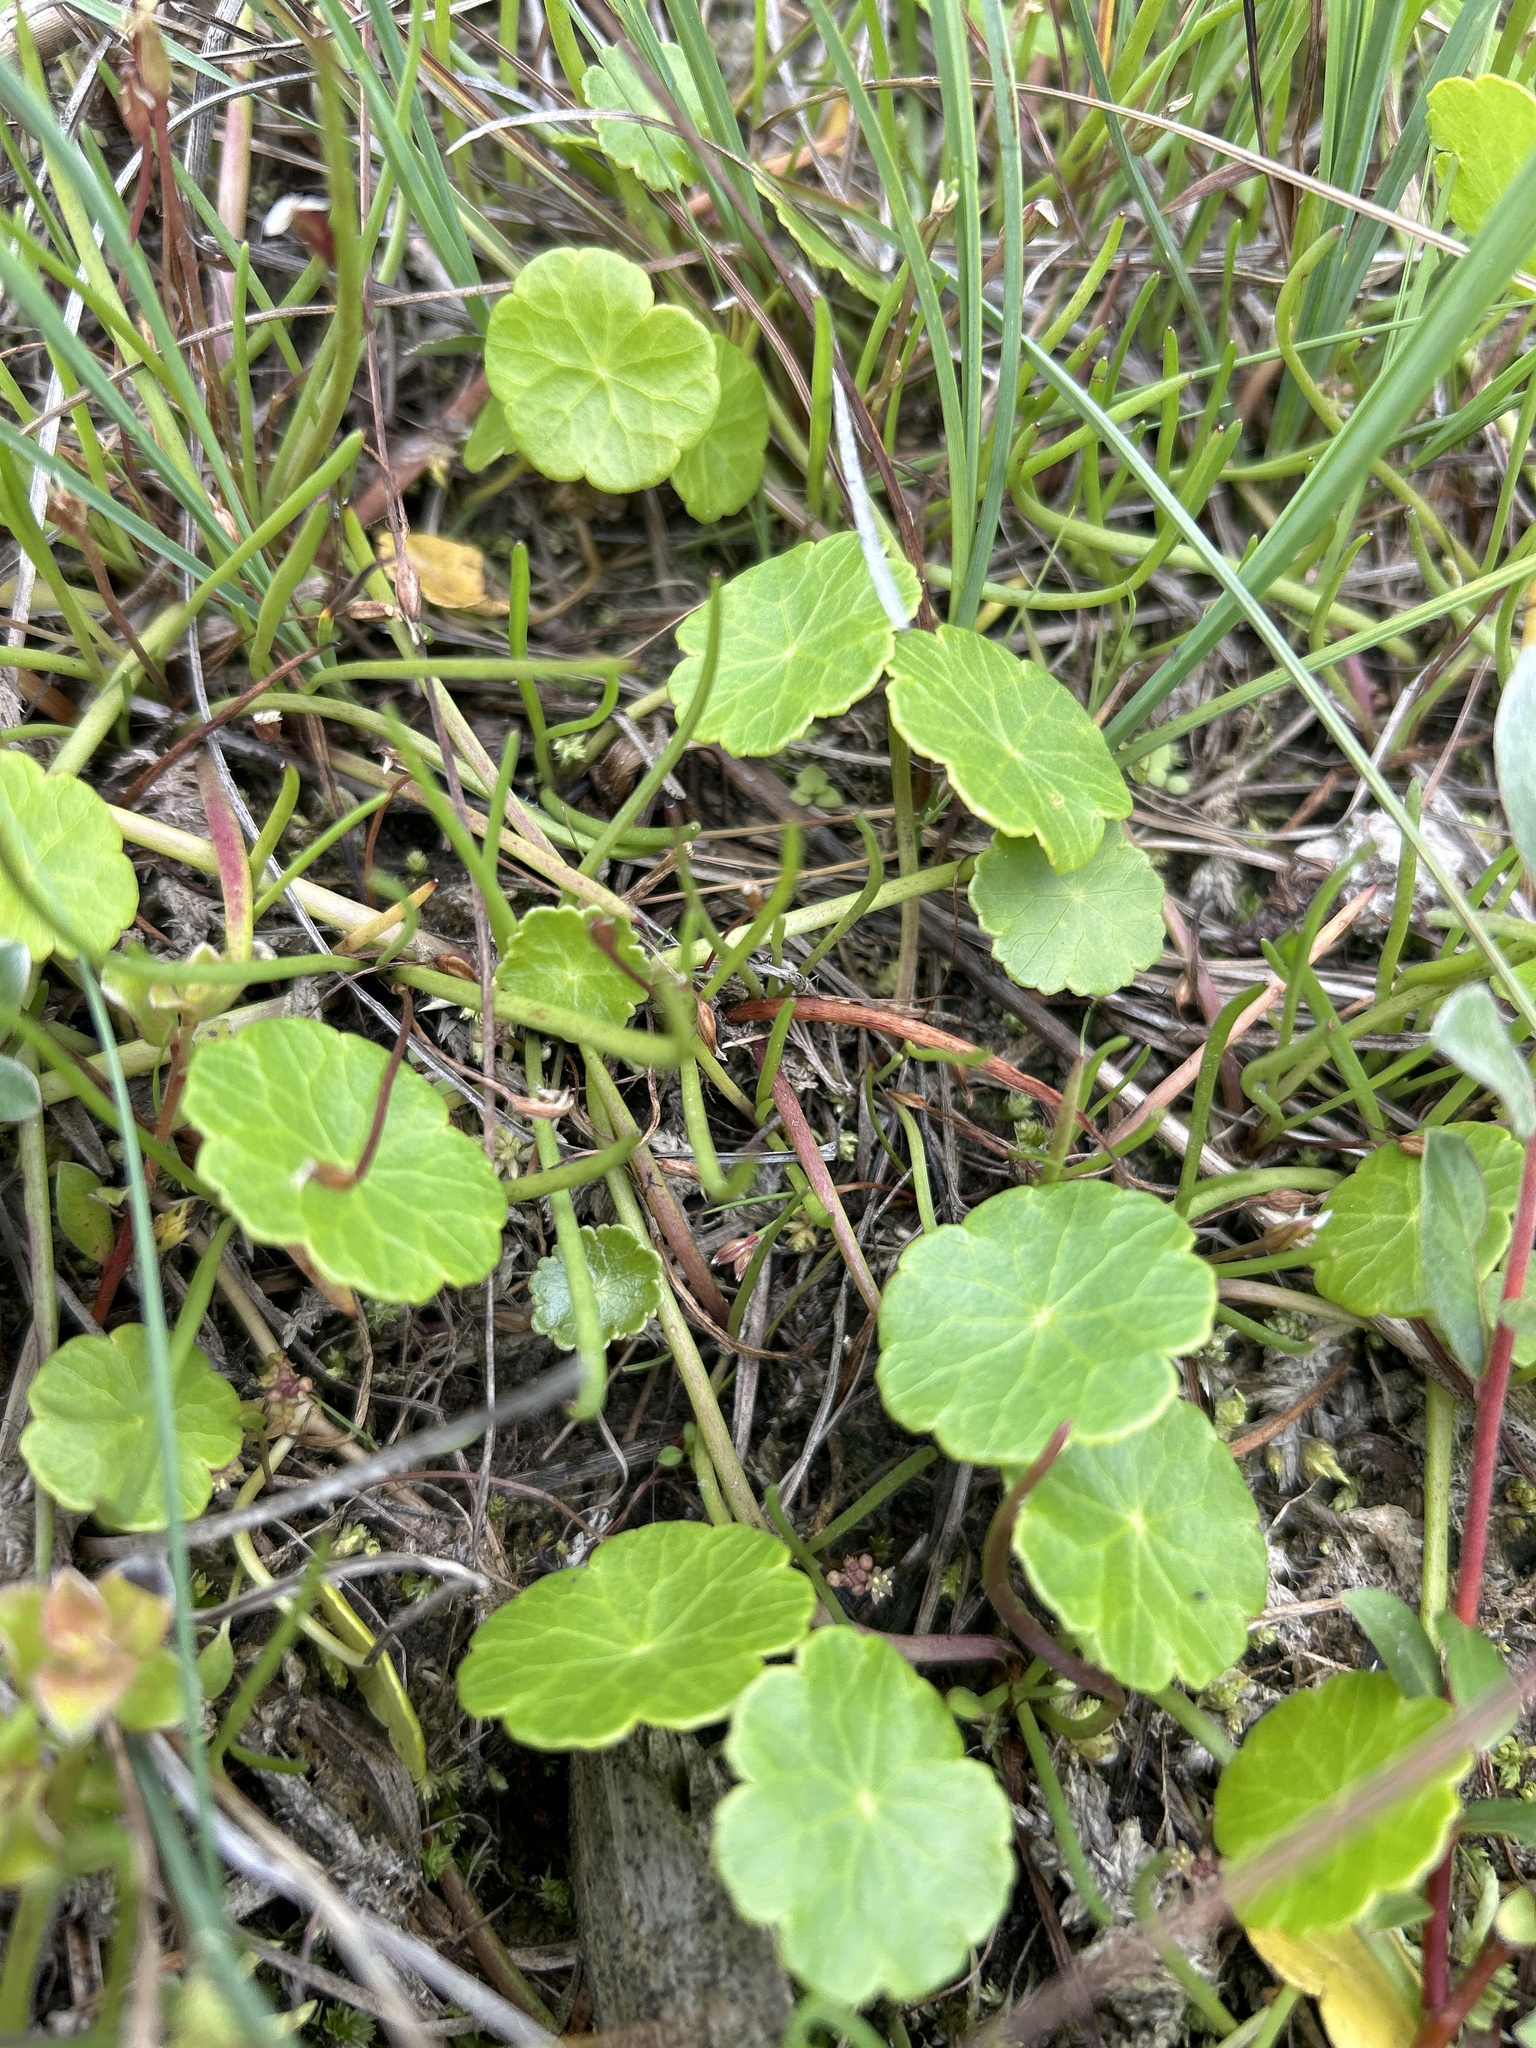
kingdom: Plantae
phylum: Tracheophyta
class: Magnoliopsida
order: Apiales
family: Araliaceae
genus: Hydrocotyle
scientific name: Hydrocotyle vulgaris
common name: Marsh pennywort
